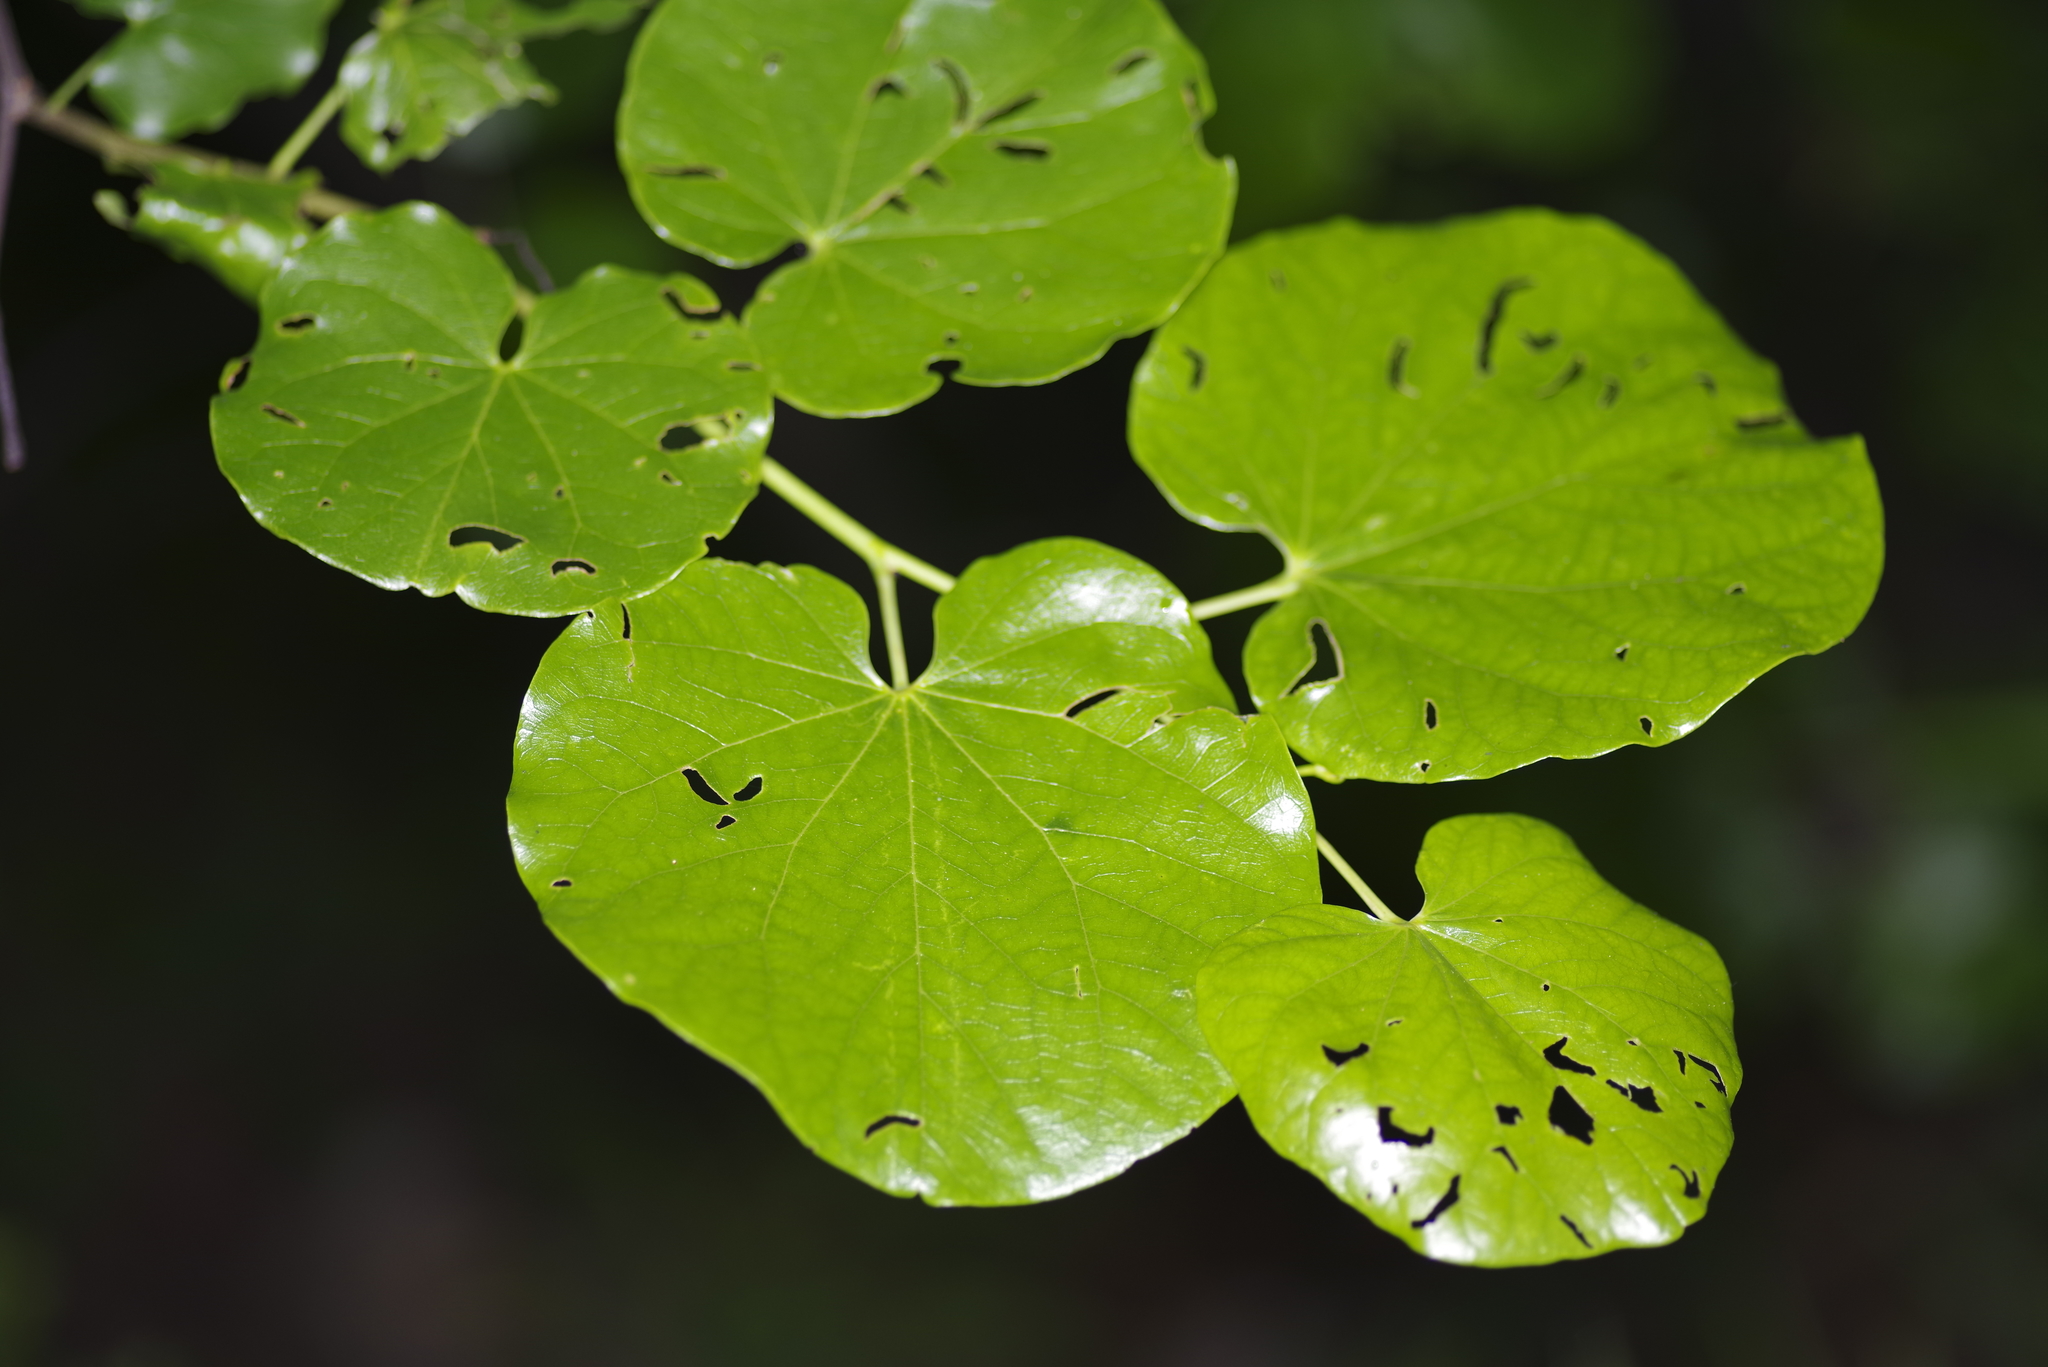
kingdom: Plantae
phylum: Tracheophyta
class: Magnoliopsida
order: Fabales
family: Fabaceae
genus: Cercis
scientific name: Cercis canadensis
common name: Eastern redbud
